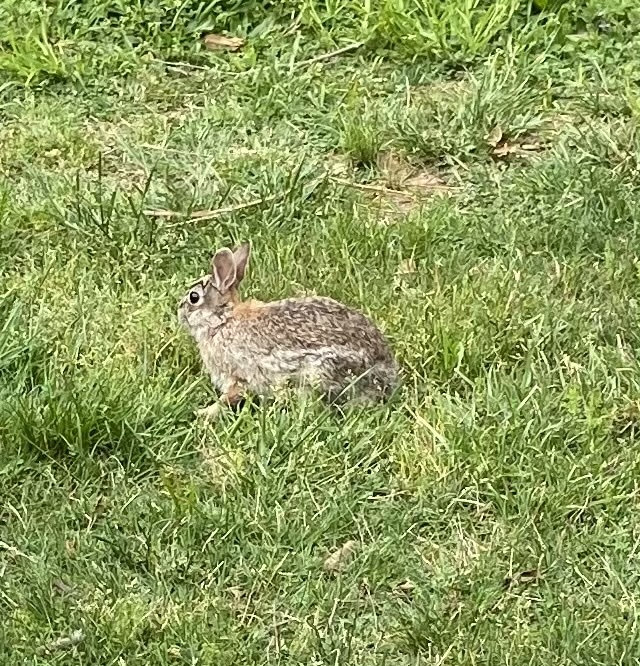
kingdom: Animalia
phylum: Chordata
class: Mammalia
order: Lagomorpha
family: Leporidae
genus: Sylvilagus
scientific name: Sylvilagus floridanus
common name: Eastern cottontail
